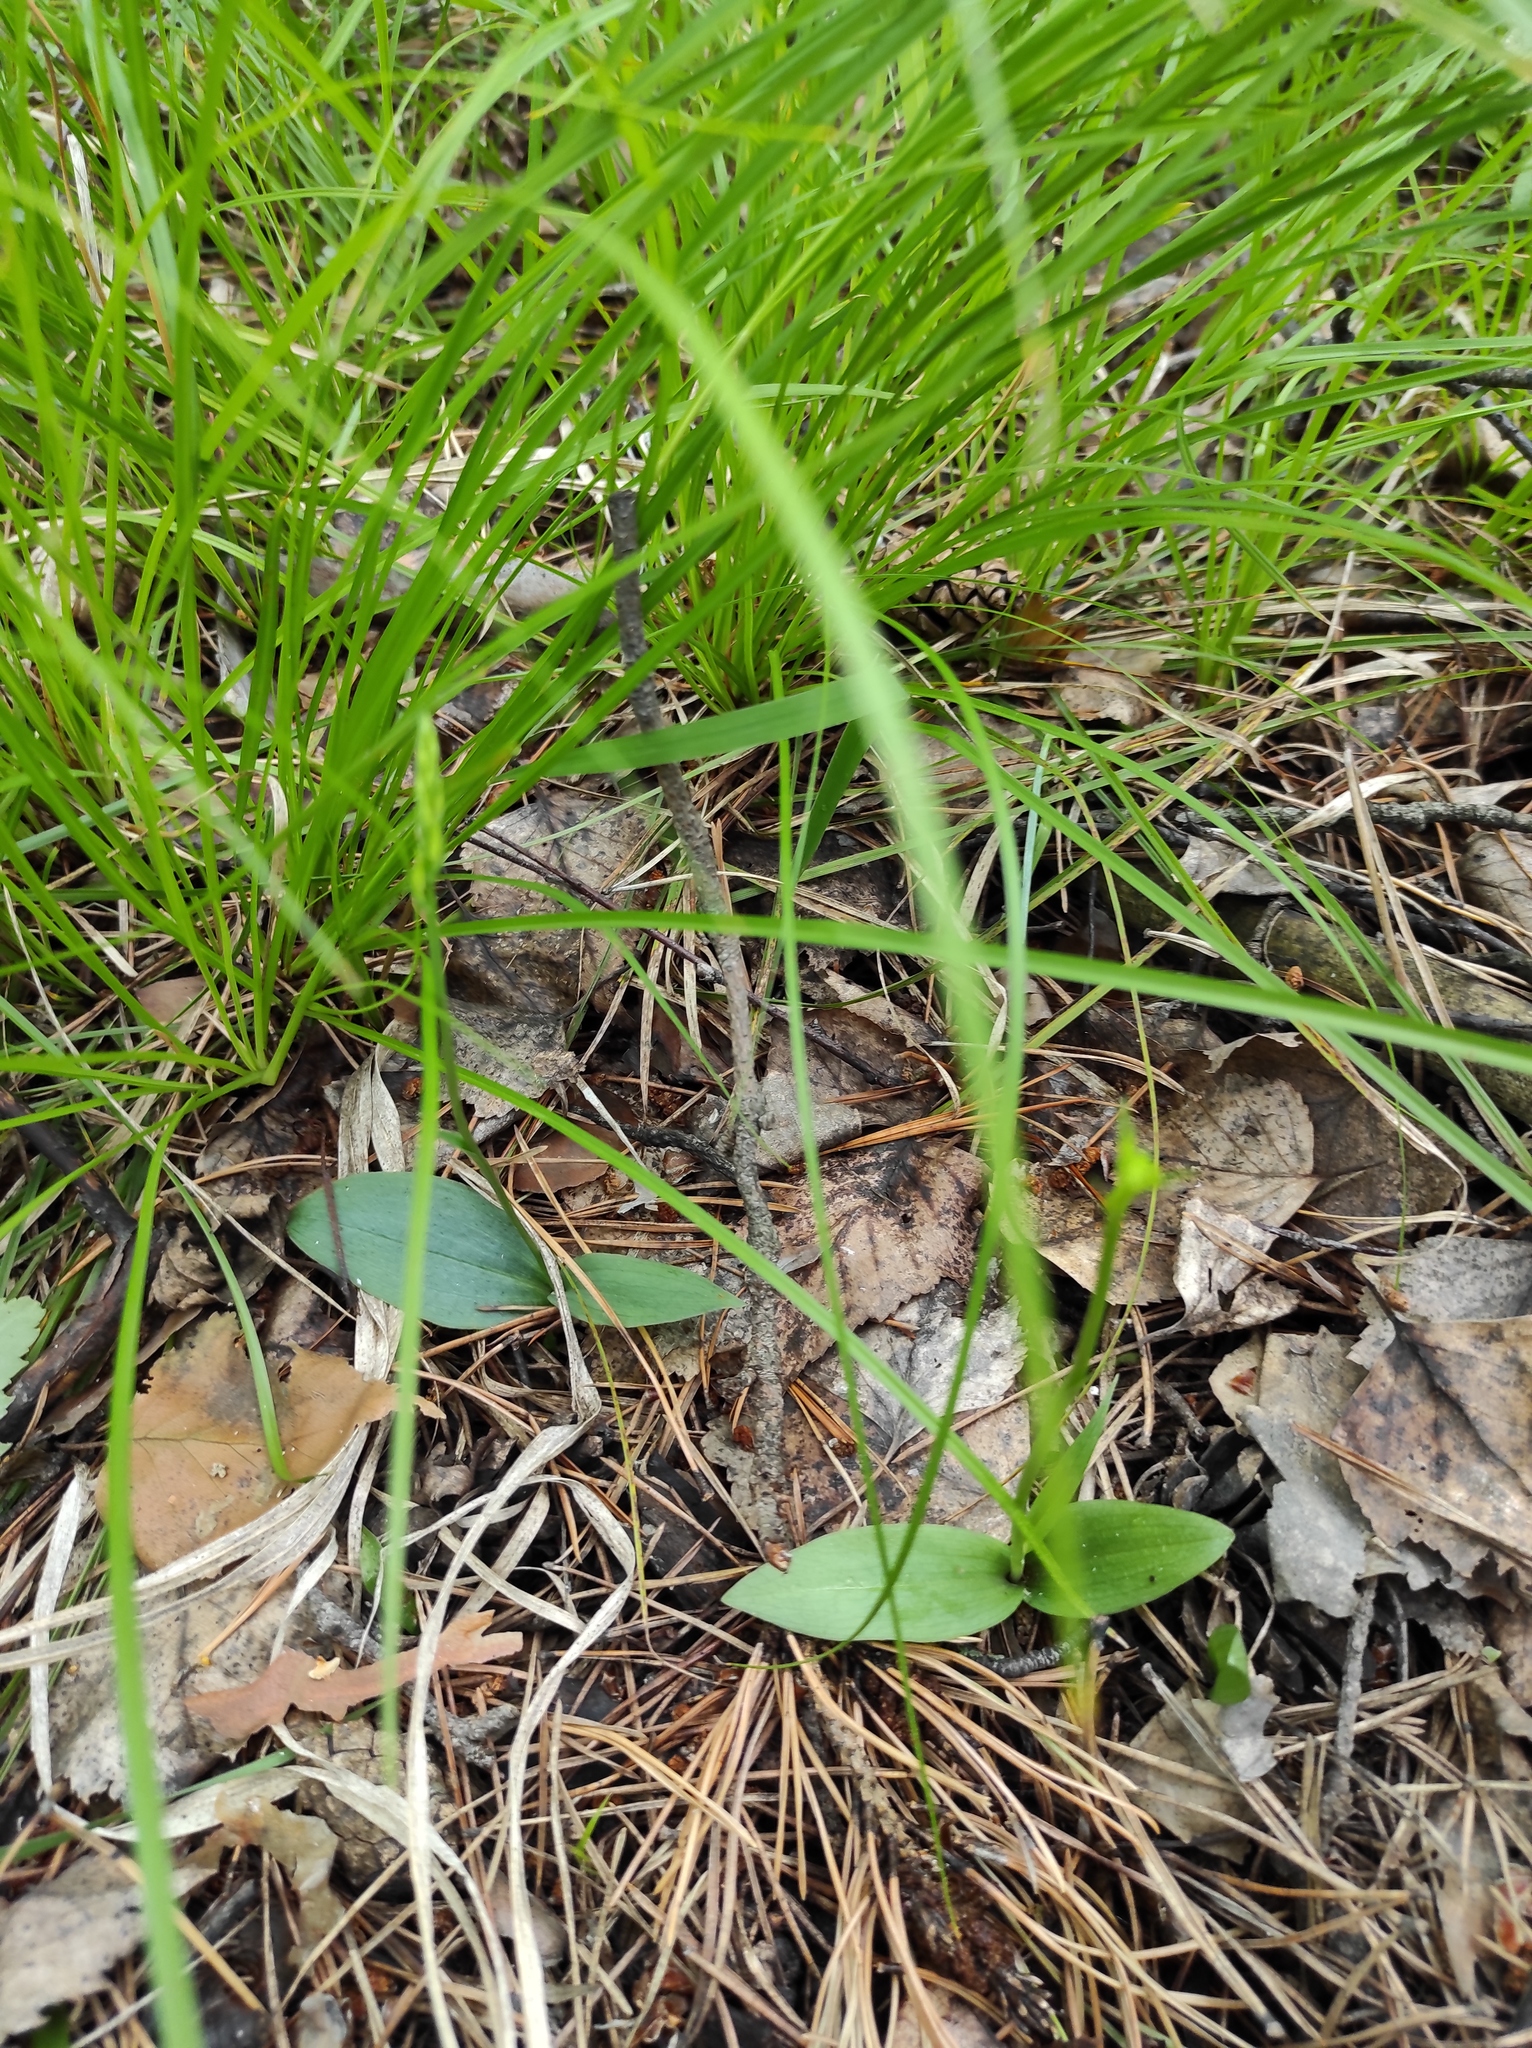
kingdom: Plantae
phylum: Tracheophyta
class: Liliopsida
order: Asparagales
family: Orchidaceae
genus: Hemipilia
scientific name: Hemipilia cucullata
